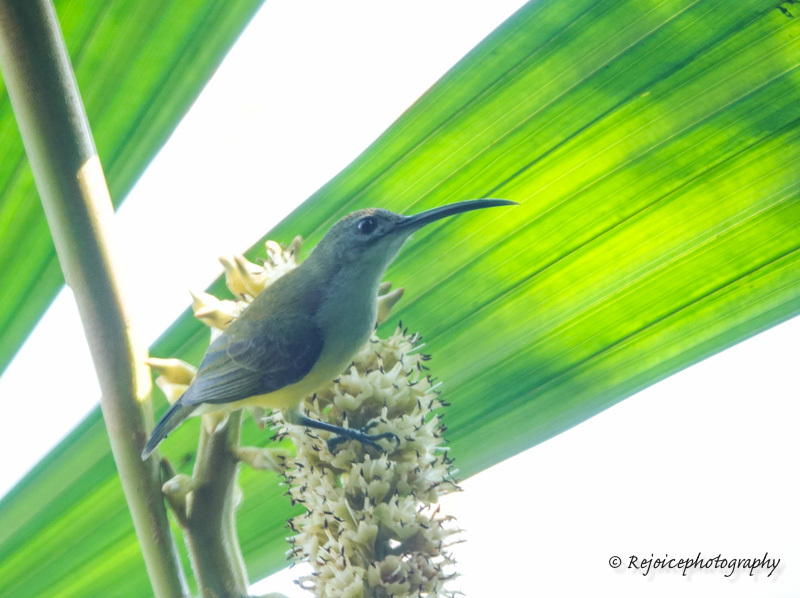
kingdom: Animalia
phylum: Chordata
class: Aves
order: Passeriformes
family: Nectariniidae
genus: Arachnothera
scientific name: Arachnothera longirostra
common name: Little spiderhunter
